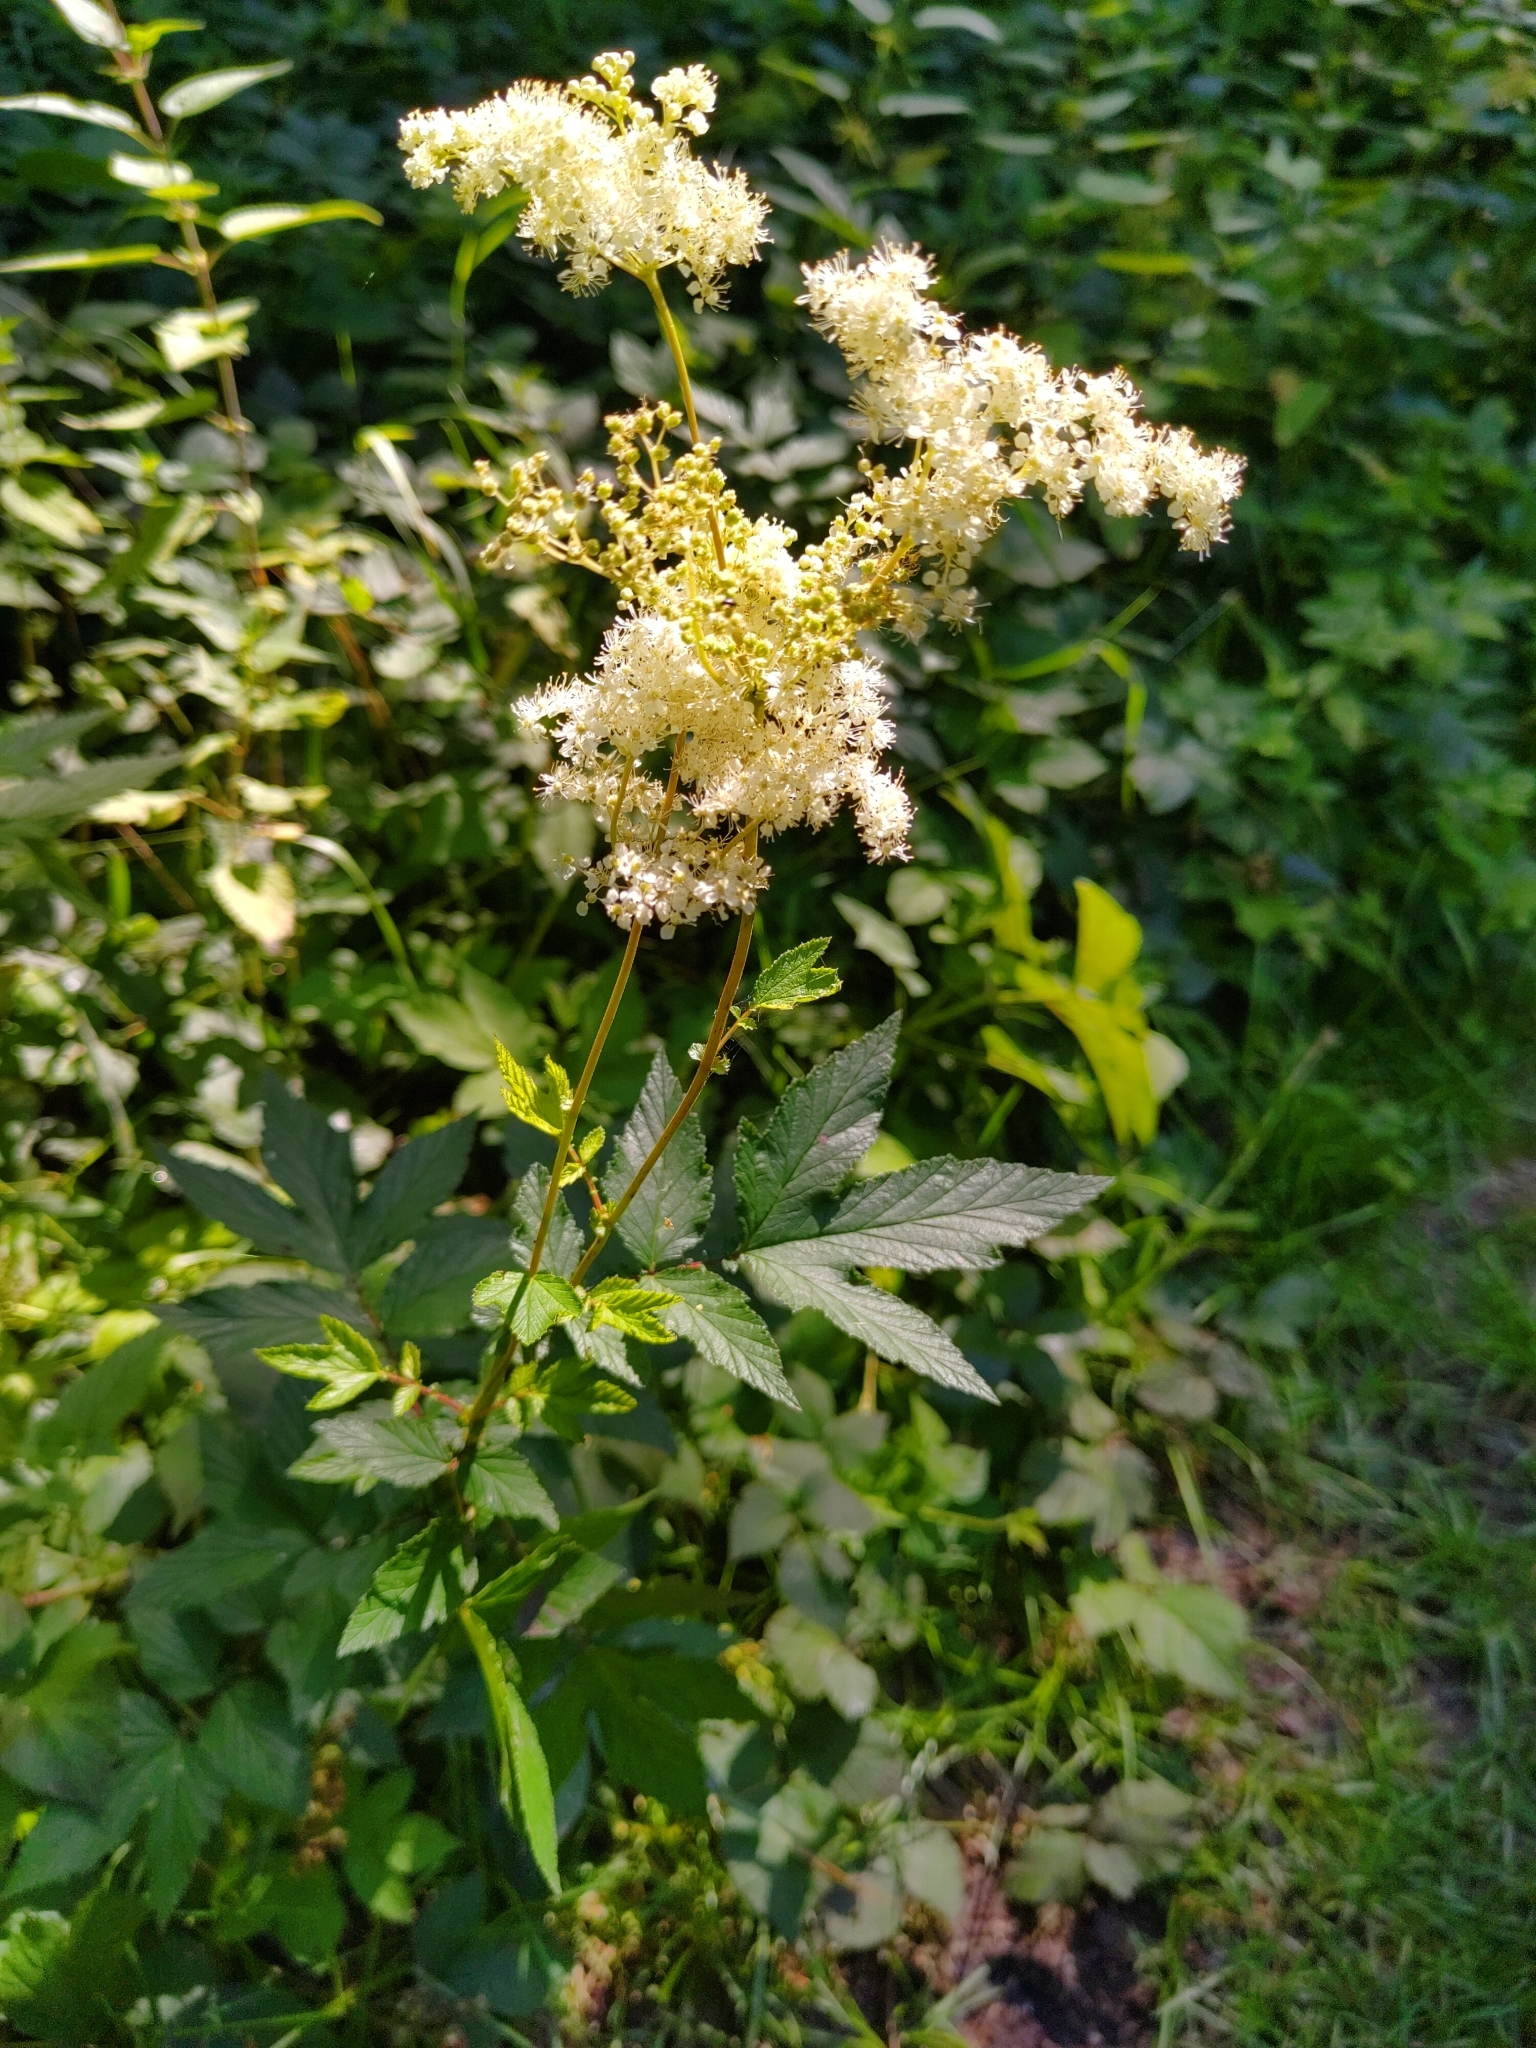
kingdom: Plantae
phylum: Tracheophyta
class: Magnoliopsida
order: Rosales
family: Rosaceae
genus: Filipendula
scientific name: Filipendula ulmaria
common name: Meadowsweet
